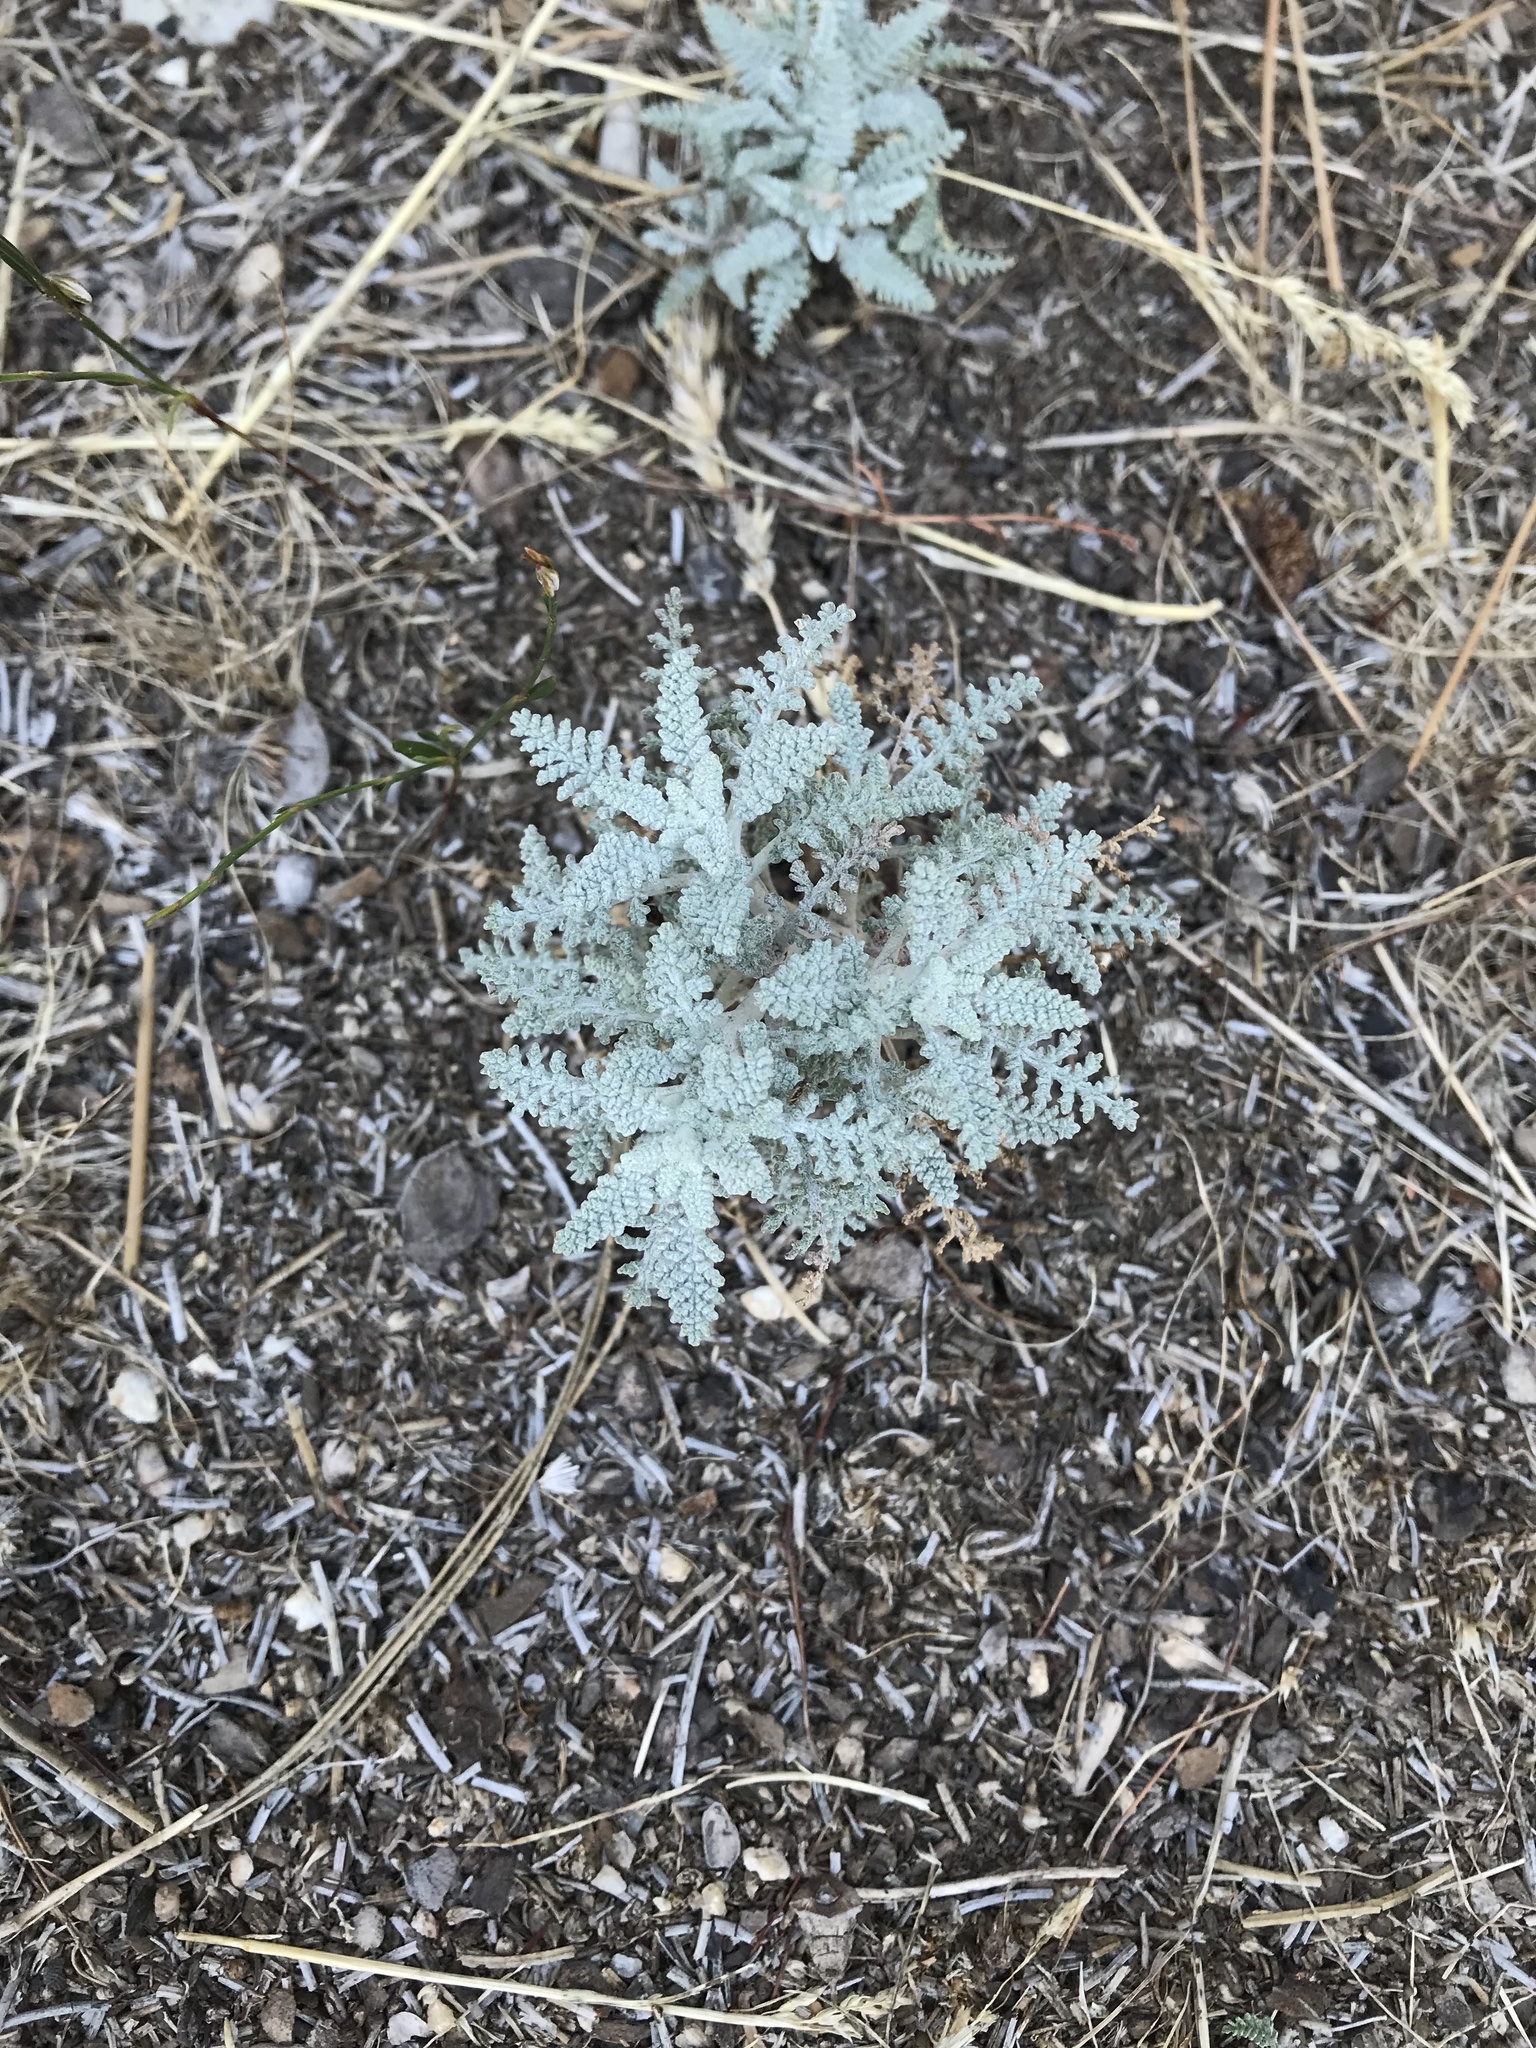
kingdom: Plantae
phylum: Tracheophyta
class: Magnoliopsida
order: Asterales
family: Asteraceae
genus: Chaenactis
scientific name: Chaenactis douglasii
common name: Hoary pincushion
